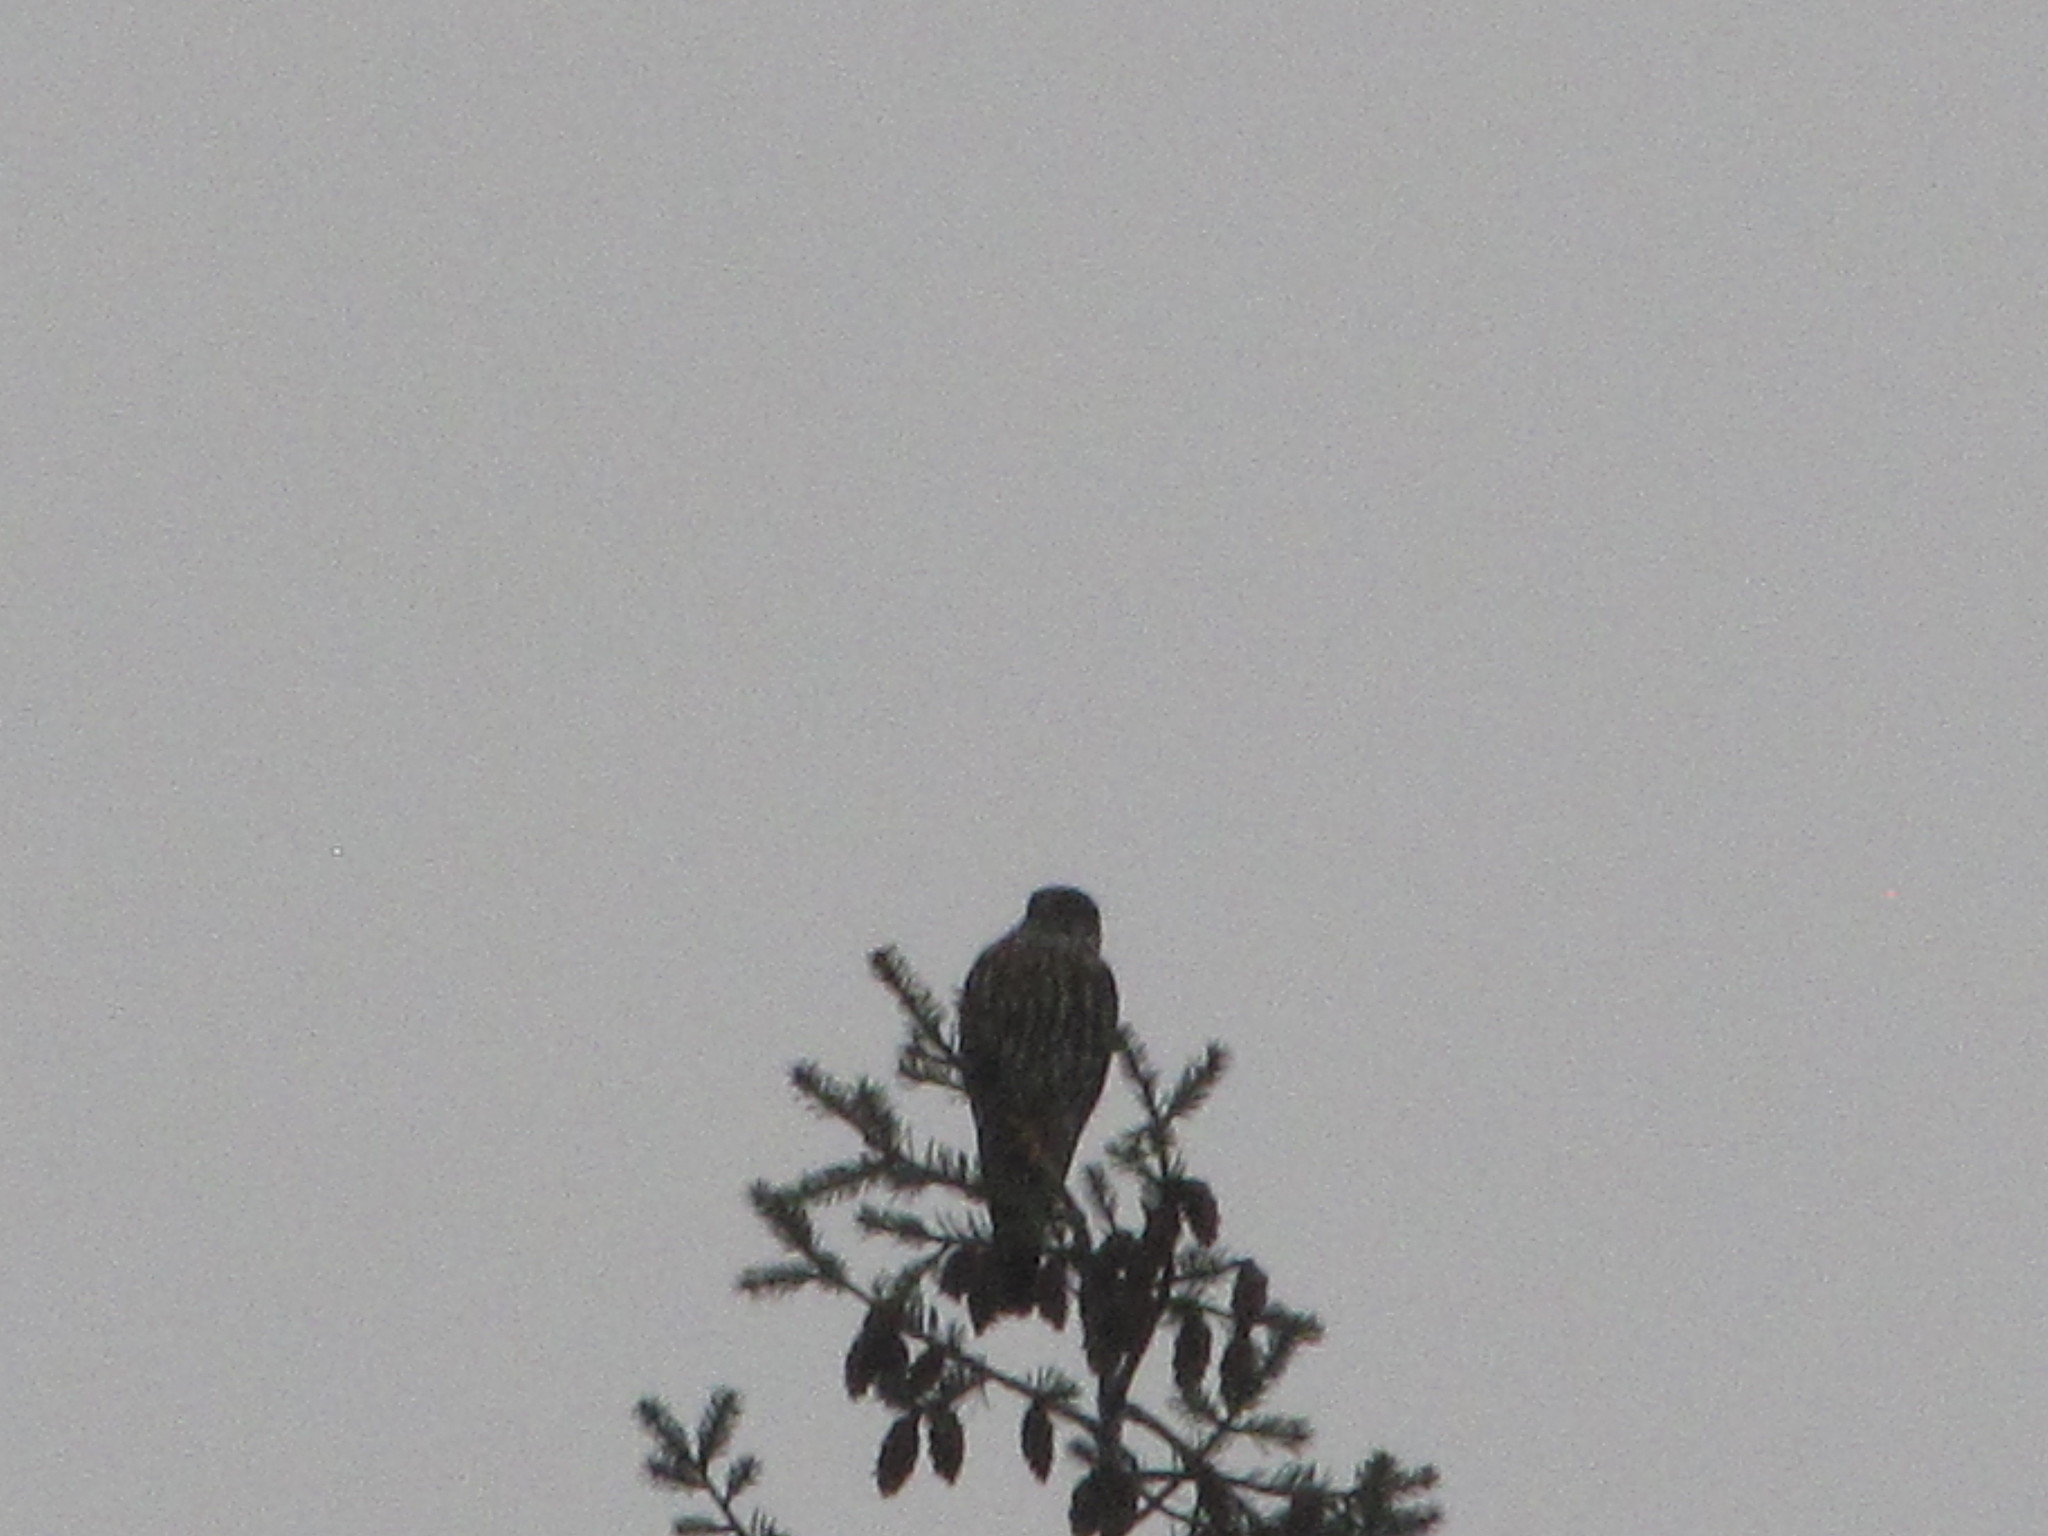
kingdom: Animalia
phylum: Chordata
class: Aves
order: Falconiformes
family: Falconidae
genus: Falco
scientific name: Falco columbarius
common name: Merlin
